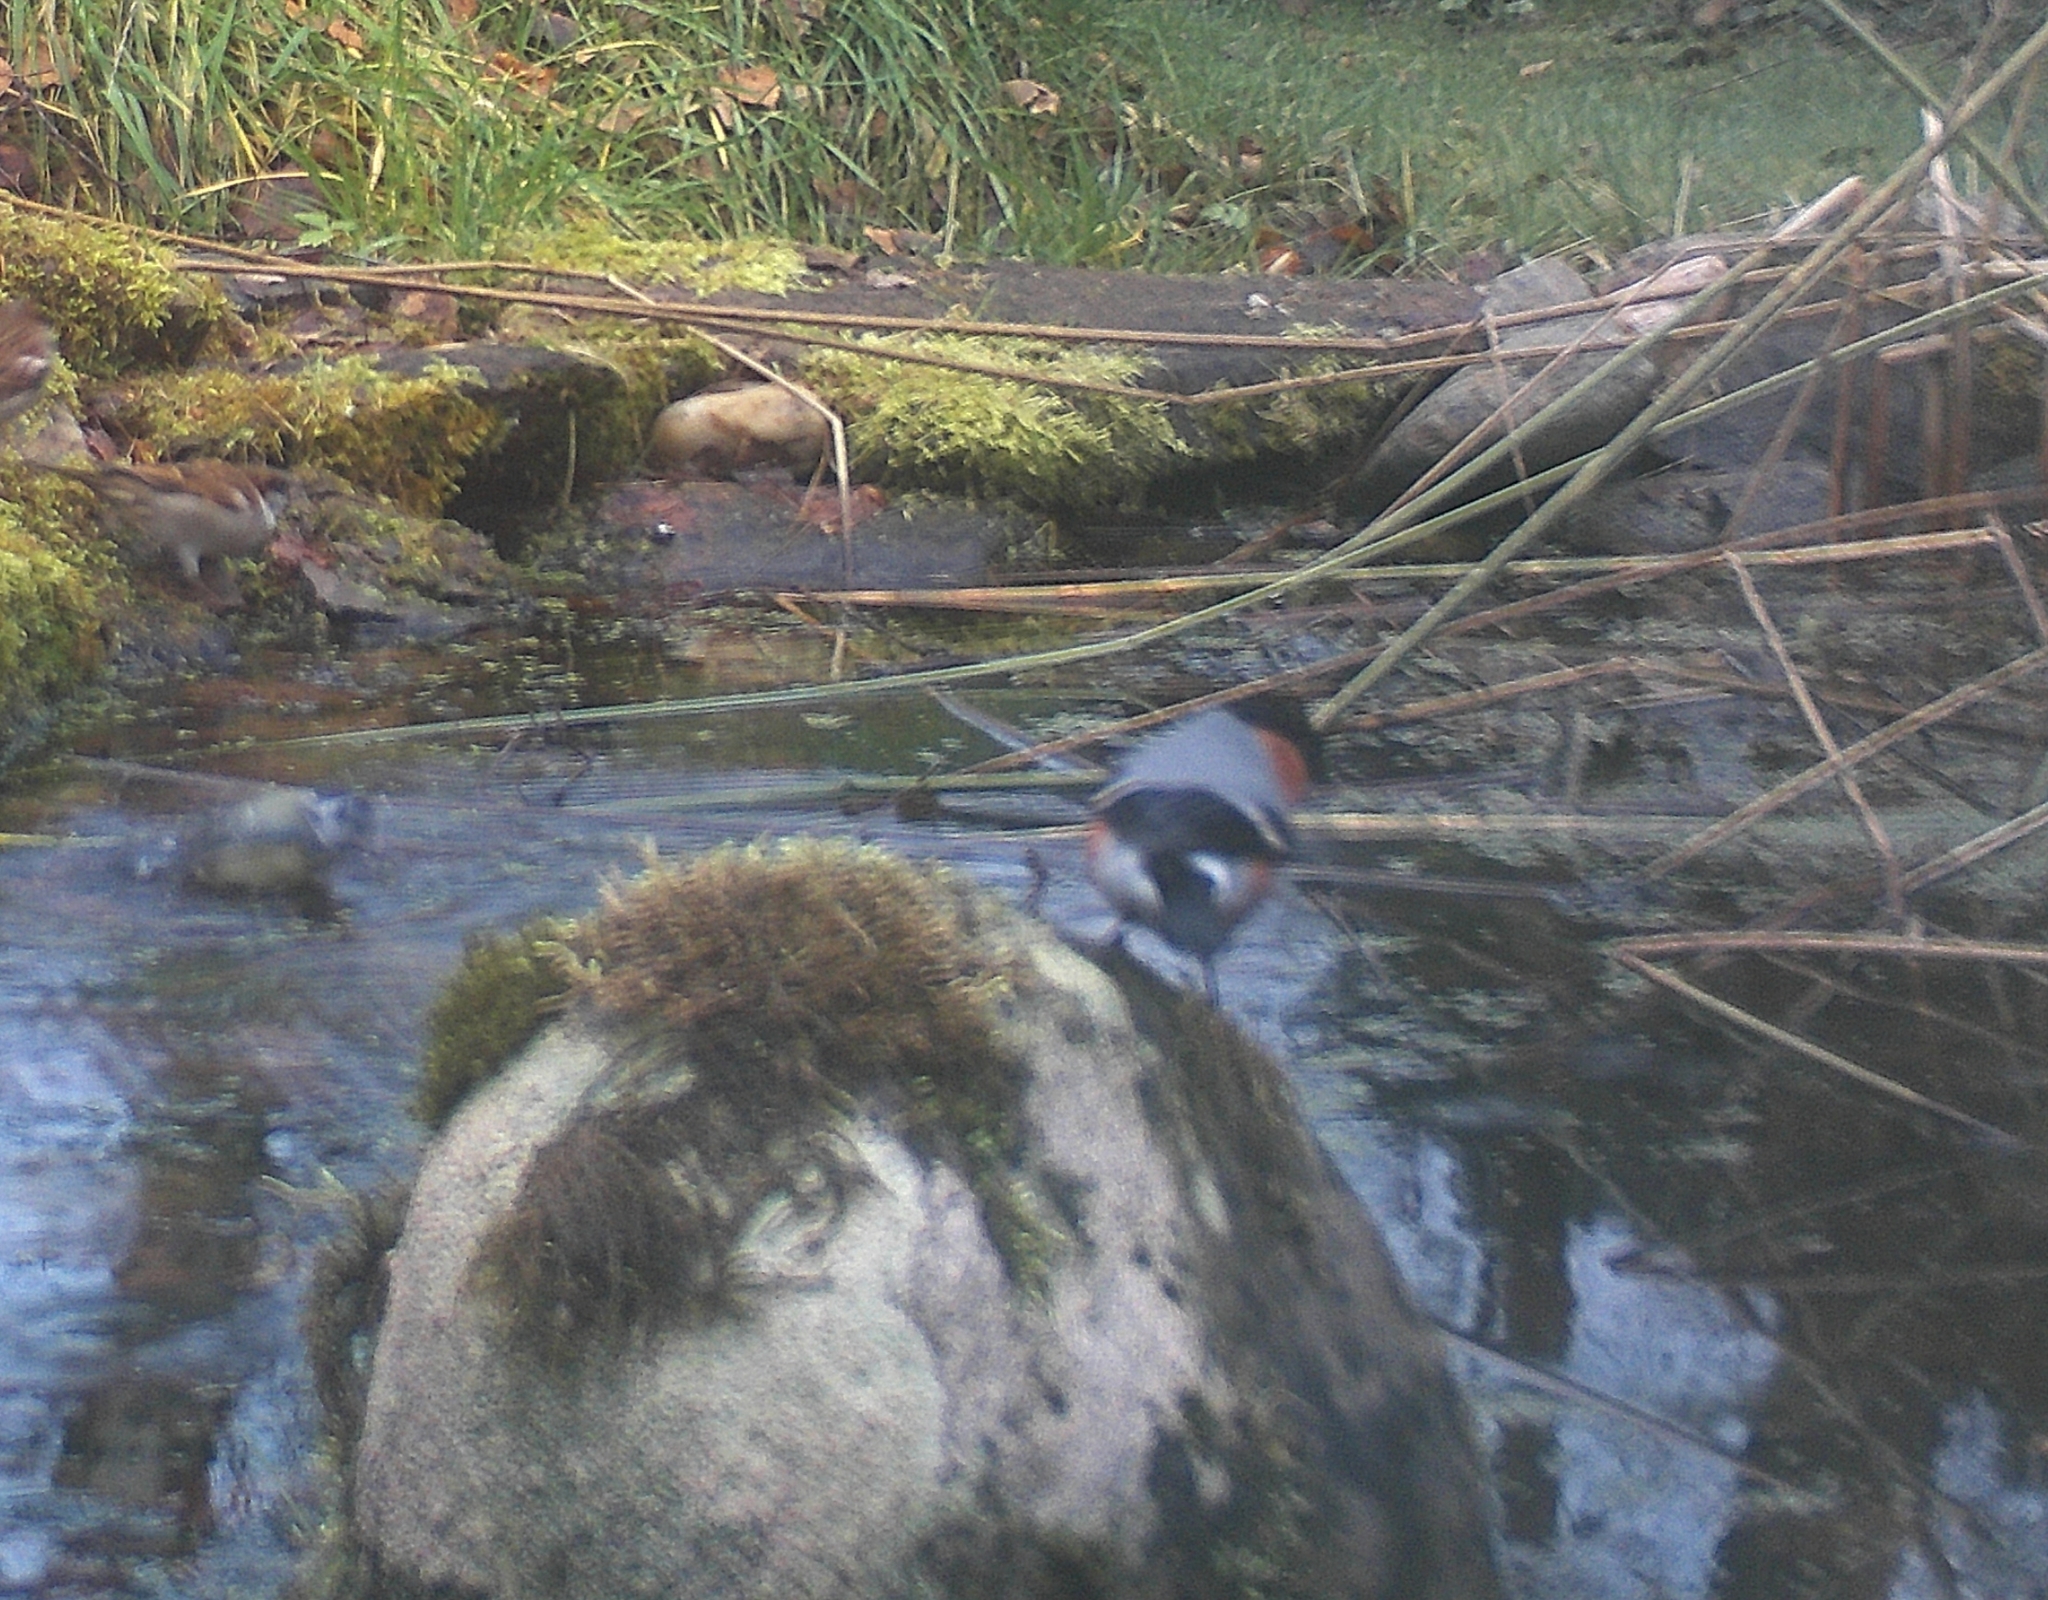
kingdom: Animalia
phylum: Chordata
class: Aves
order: Passeriformes
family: Fringillidae
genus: Pyrrhula
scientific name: Pyrrhula pyrrhula
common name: Eurasian bullfinch
